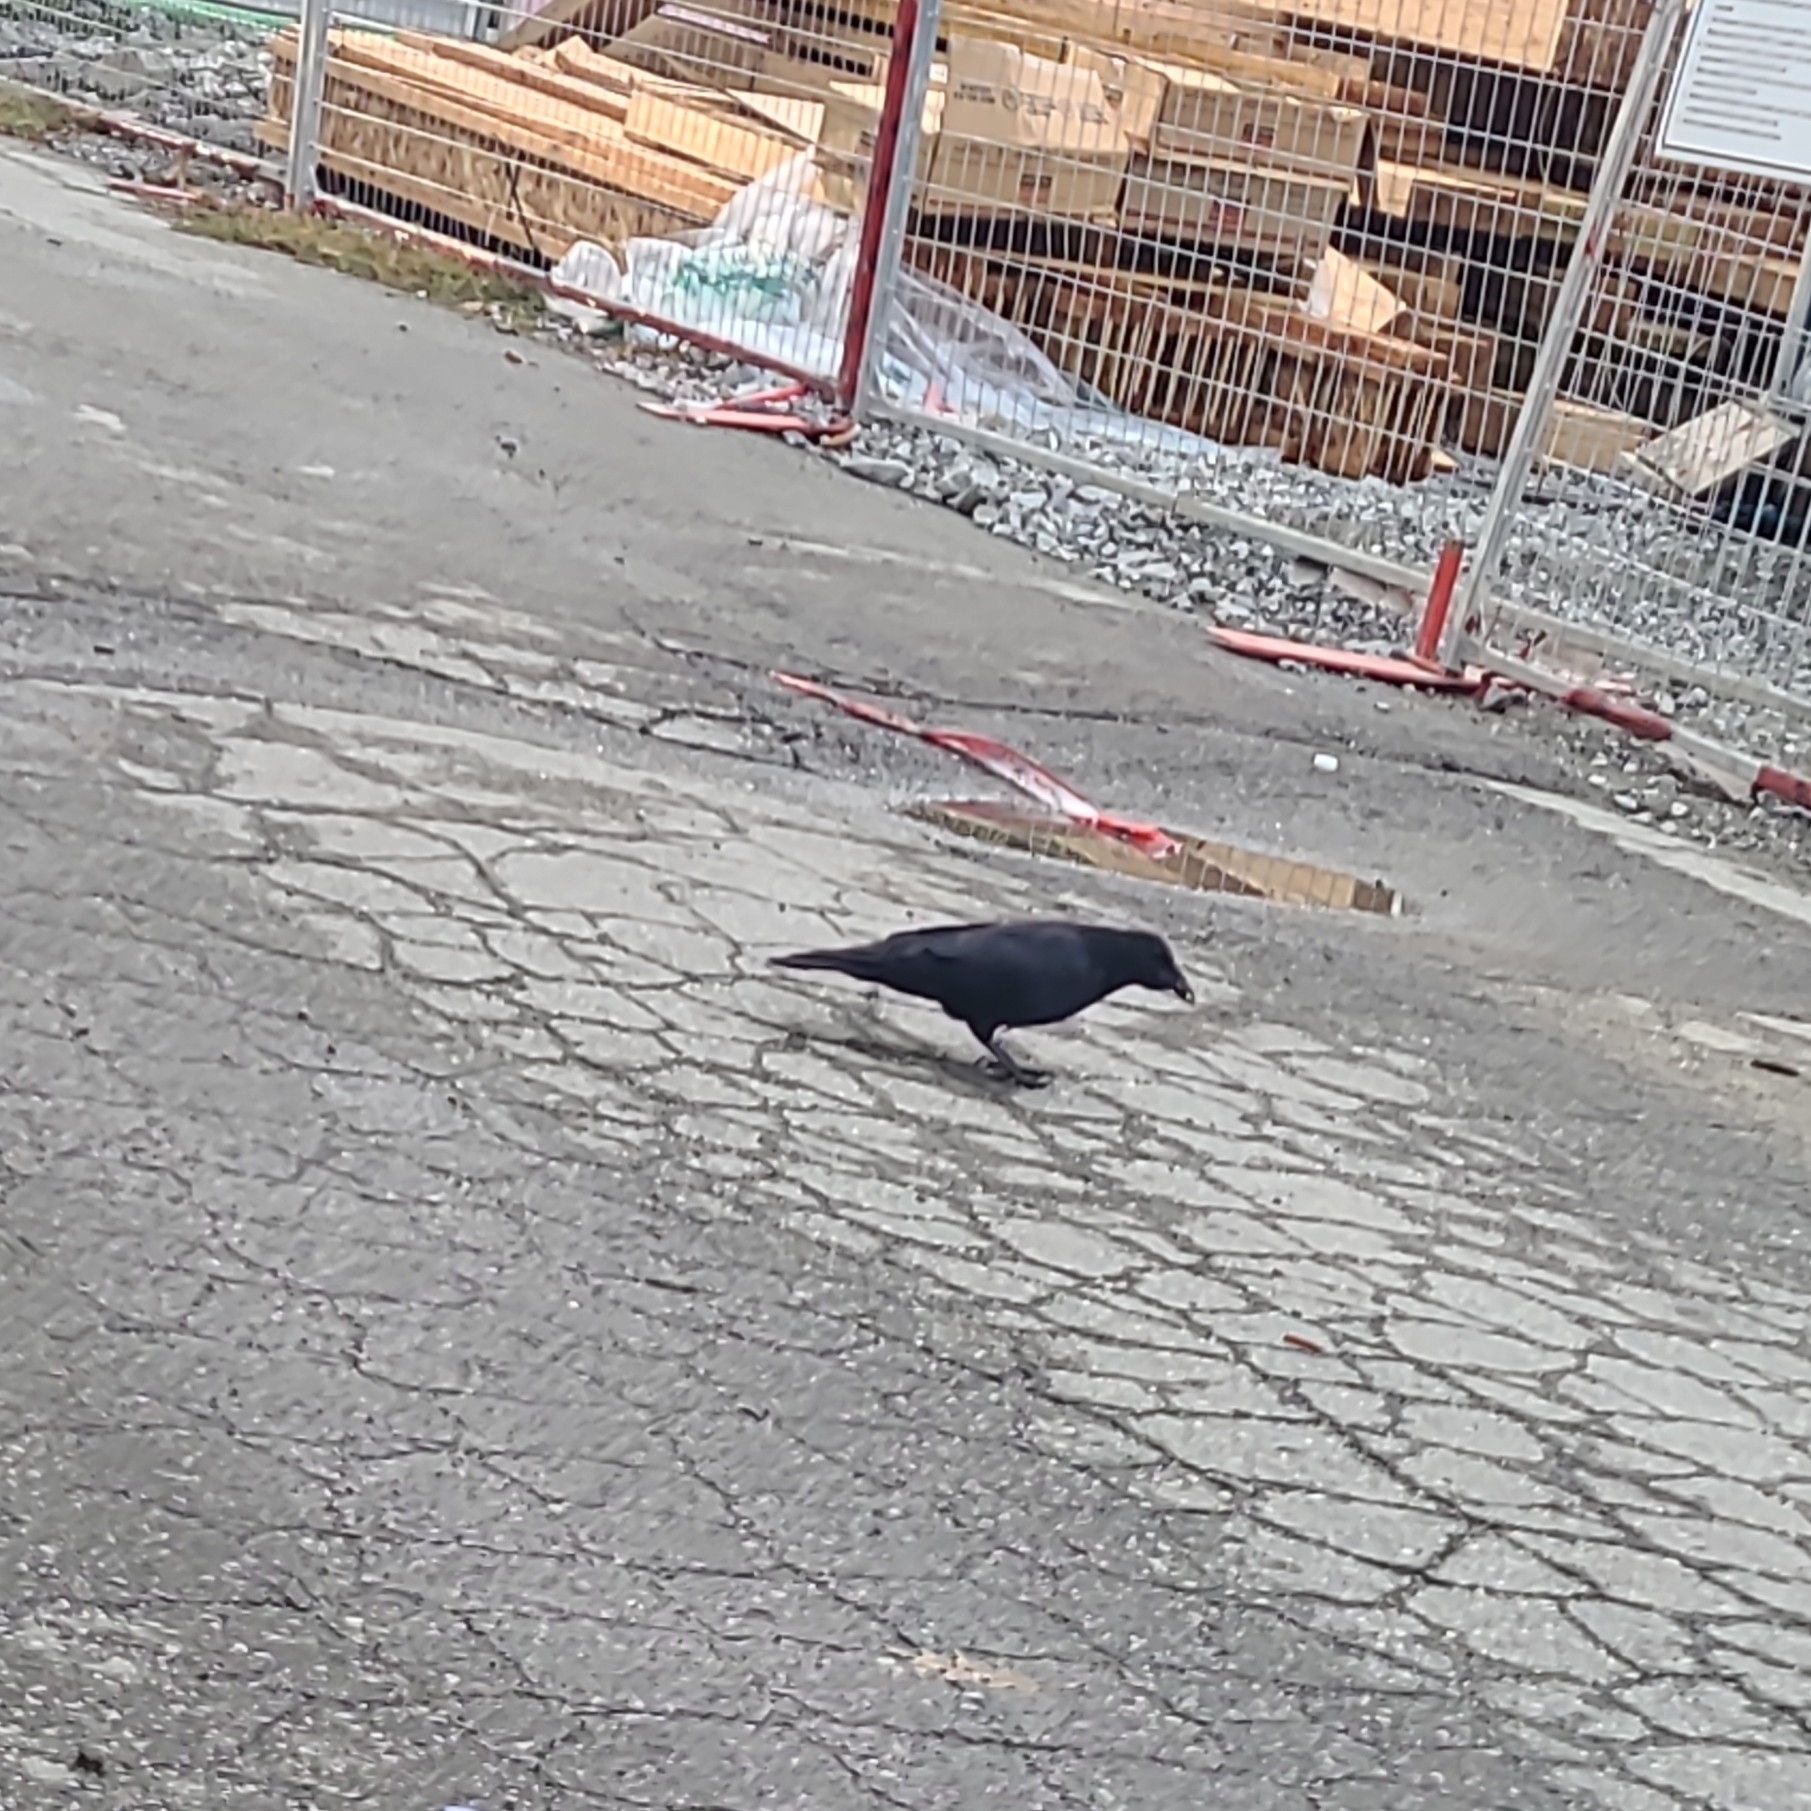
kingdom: Animalia
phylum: Chordata
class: Aves
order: Passeriformes
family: Corvidae
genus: Corvus
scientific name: Corvus brachyrhynchos
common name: American crow
